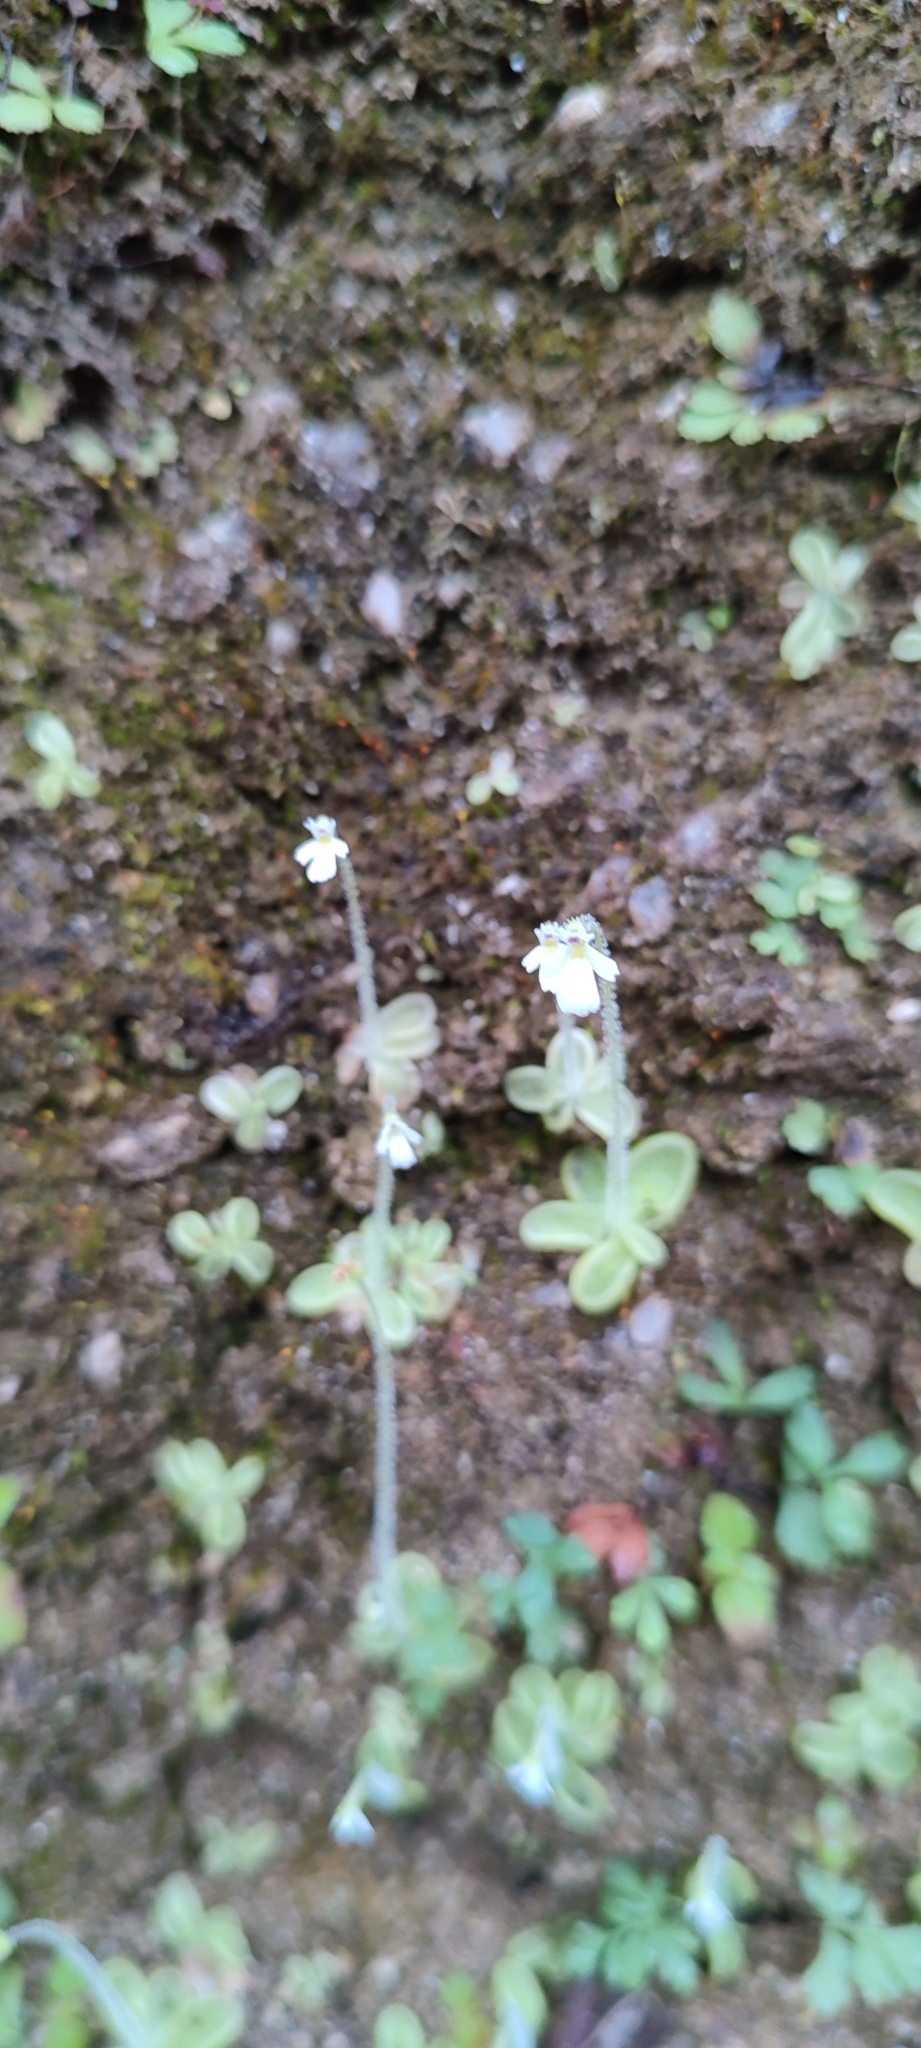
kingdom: Plantae
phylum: Tracheophyta
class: Magnoliopsida
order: Lamiales
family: Lentibulariaceae
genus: Pinguicula
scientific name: Pinguicula crenatiloba
